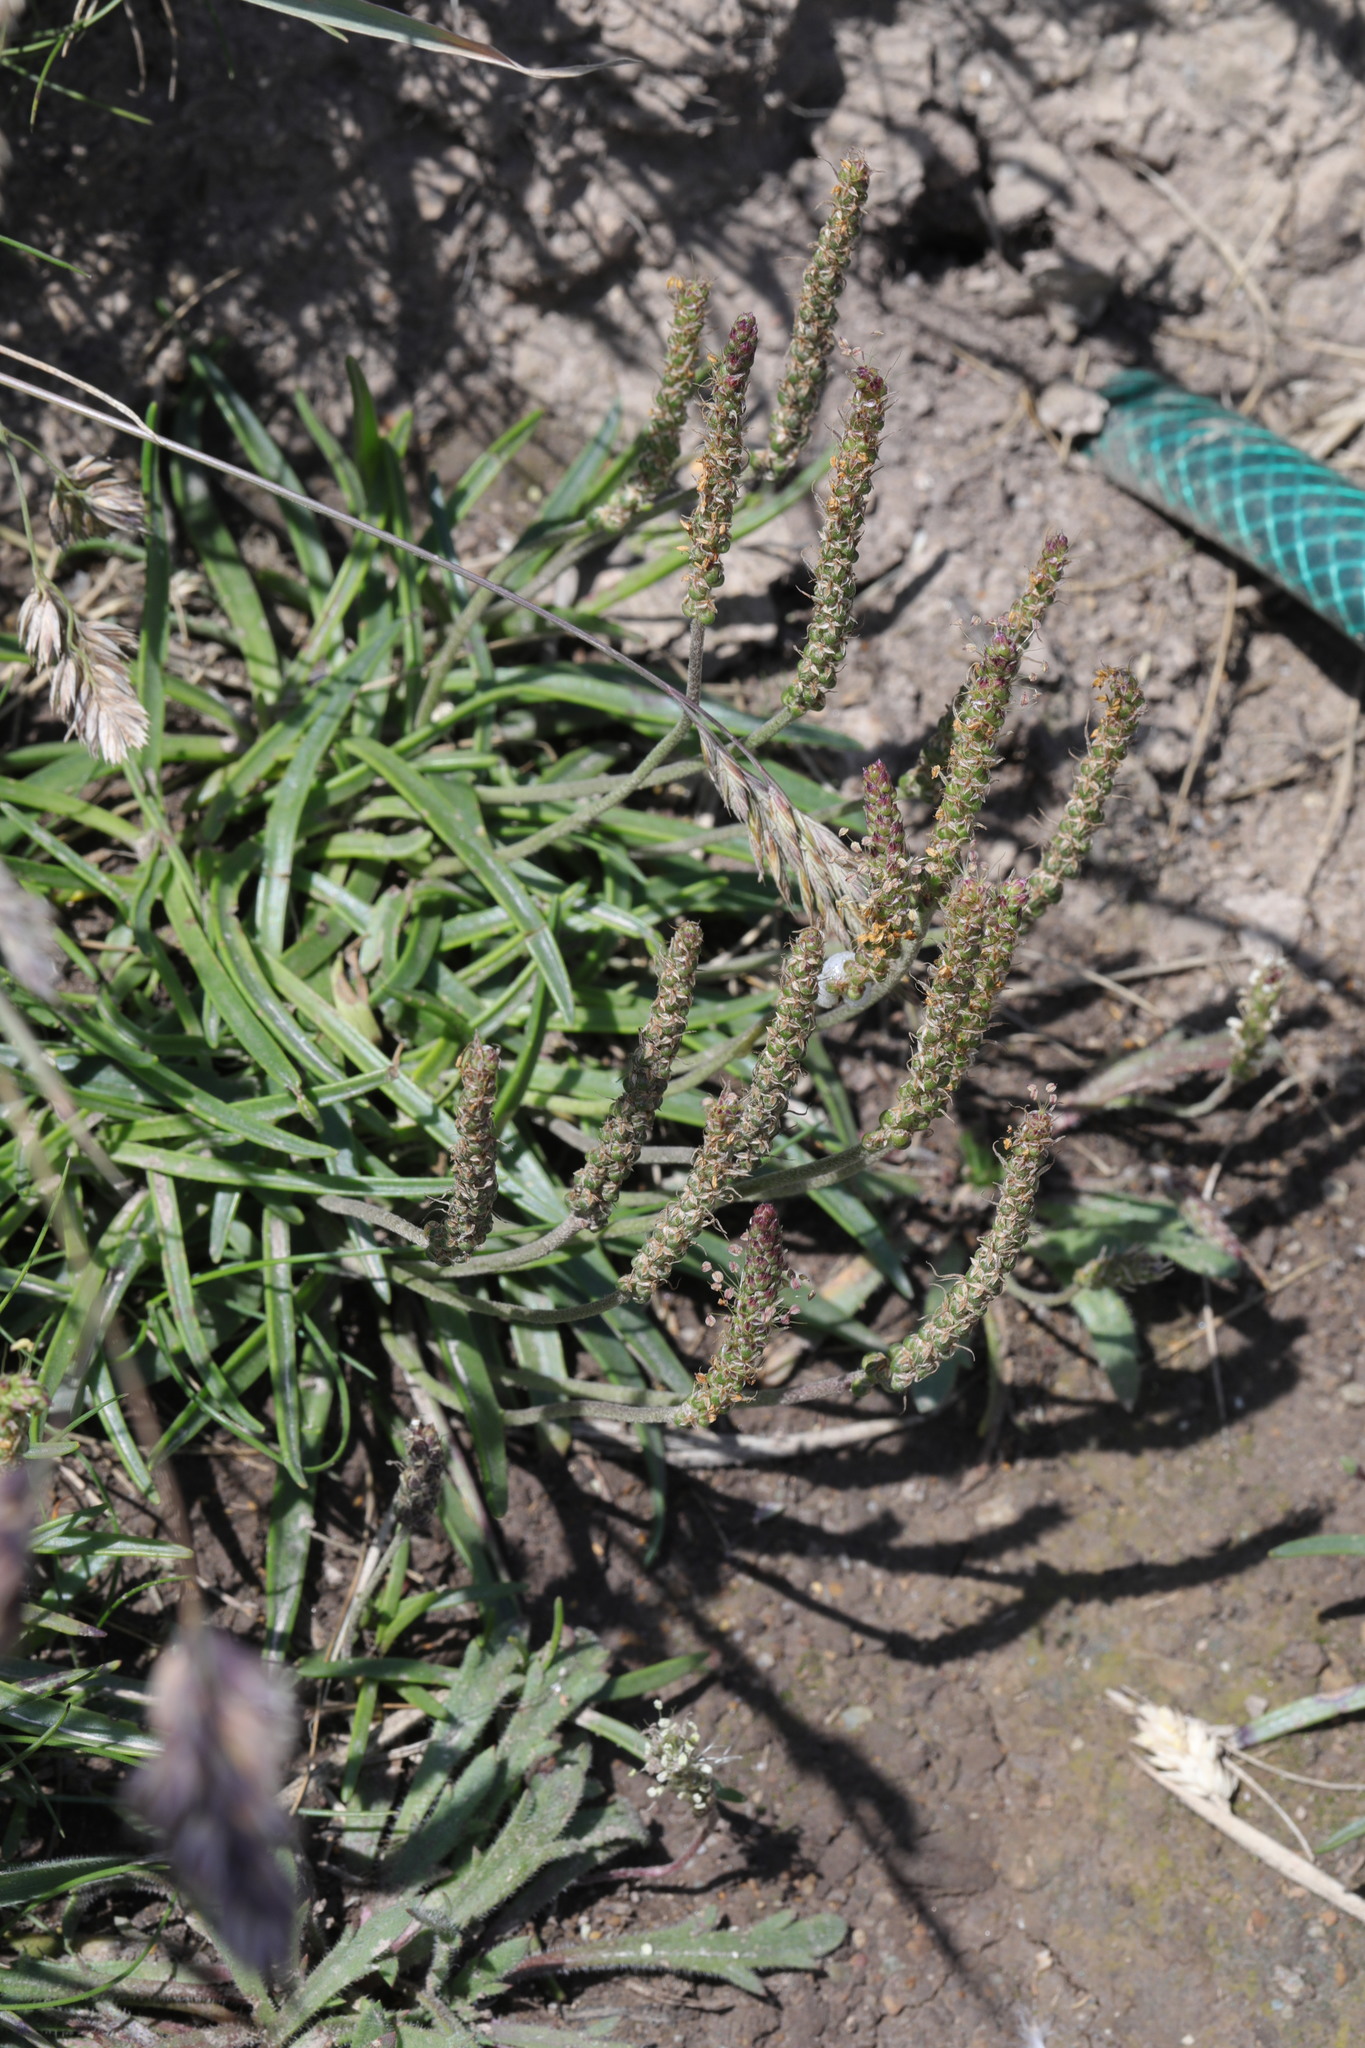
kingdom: Plantae
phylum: Tracheophyta
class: Magnoliopsida
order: Lamiales
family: Plantaginaceae
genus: Plantago
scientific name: Plantago maritima
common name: Sea plantain
